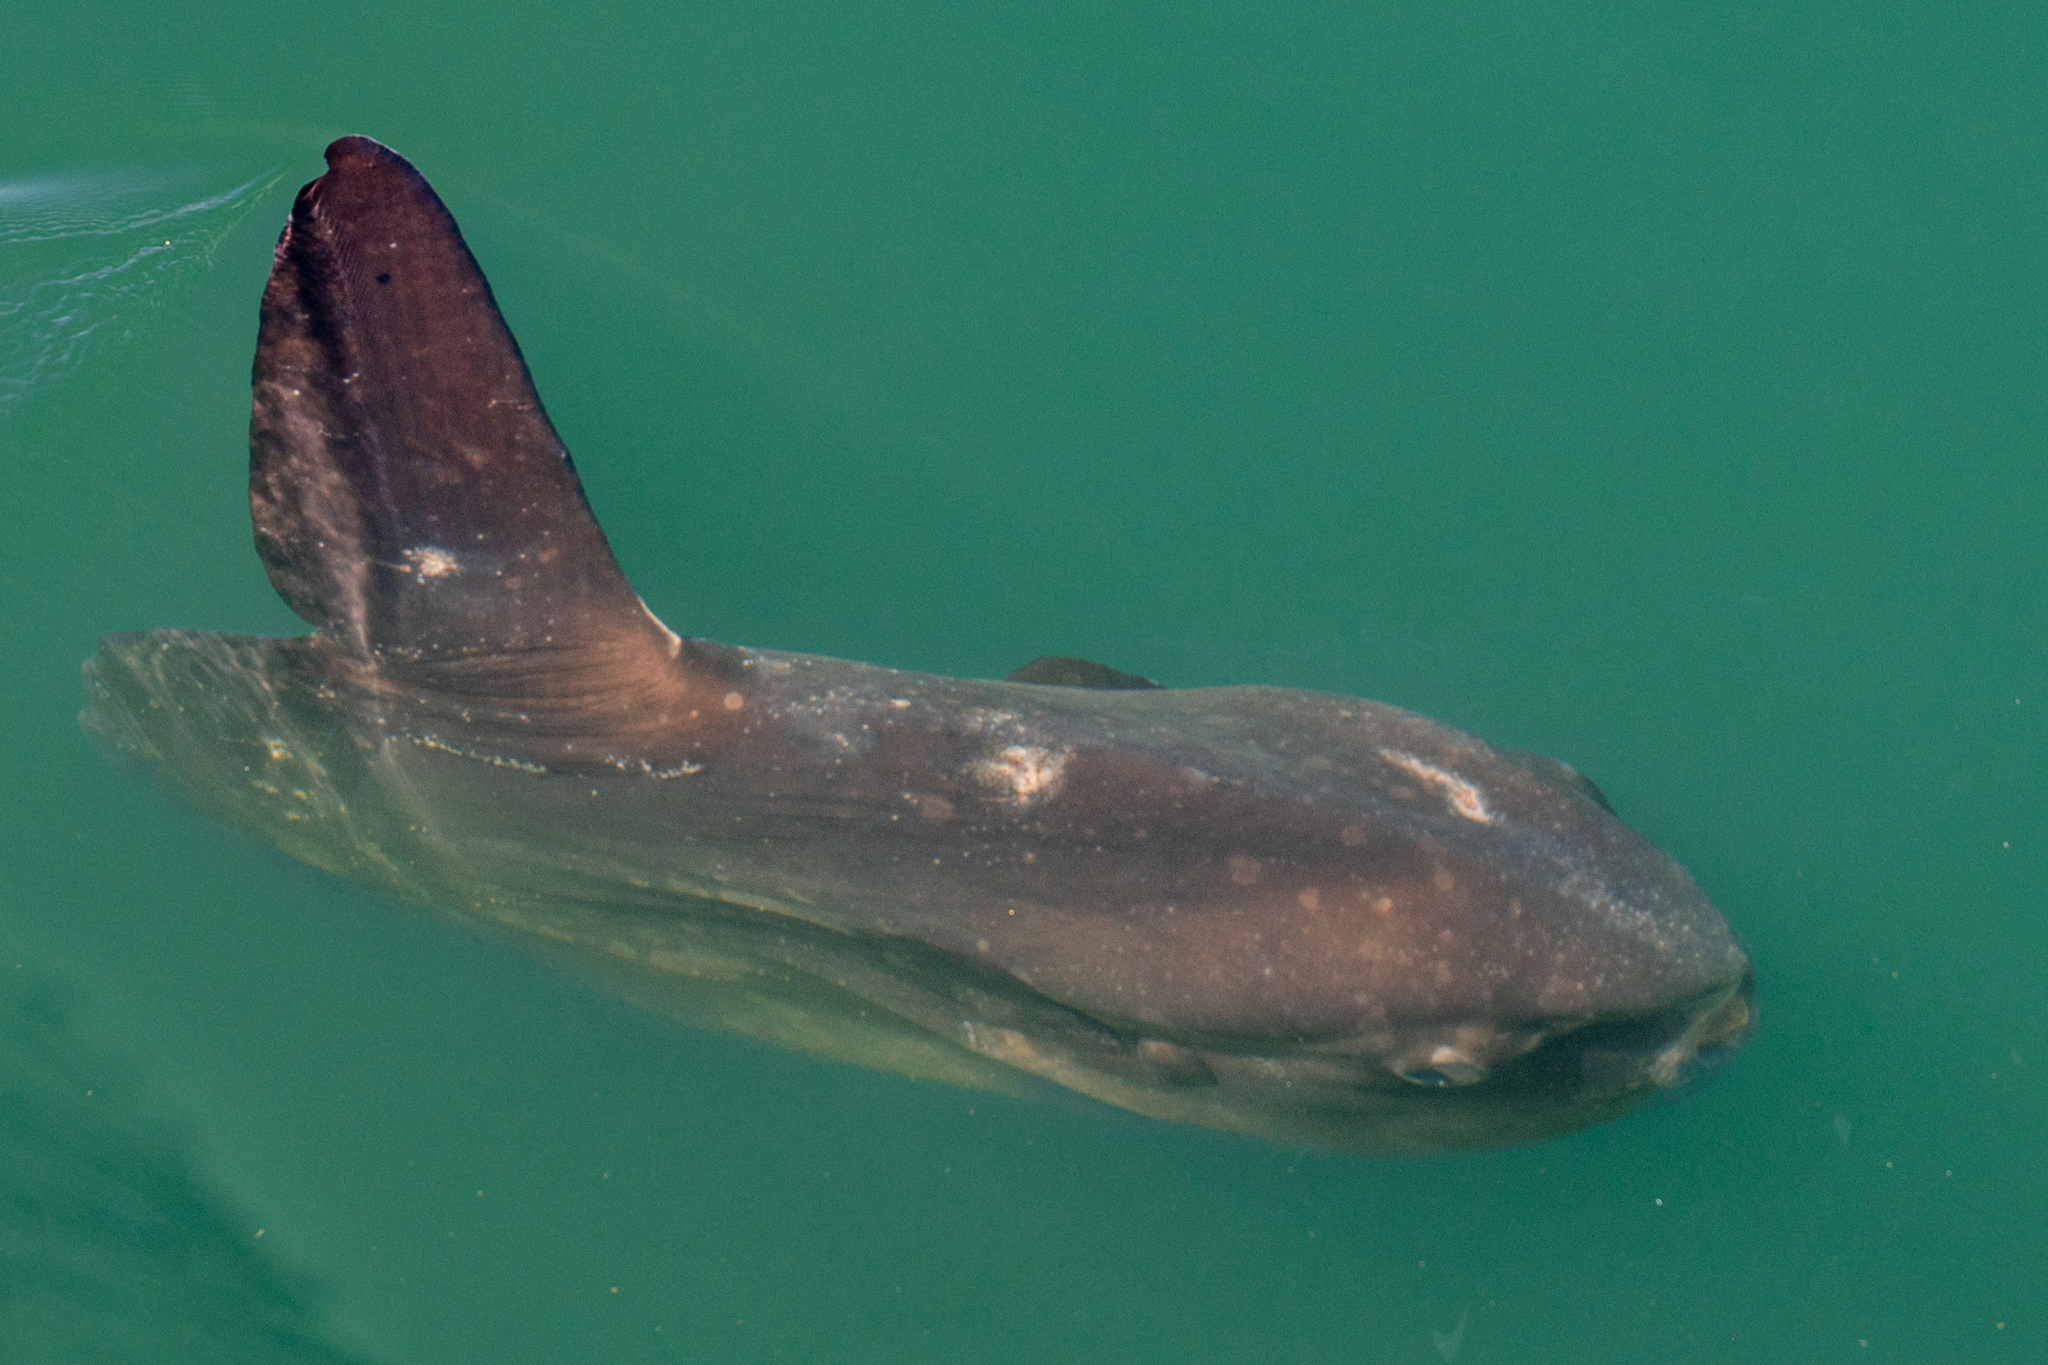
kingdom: Animalia
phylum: Chordata
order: Tetraodontiformes
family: Molidae
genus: Mola
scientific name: Mola mola
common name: Ocean sunfish
